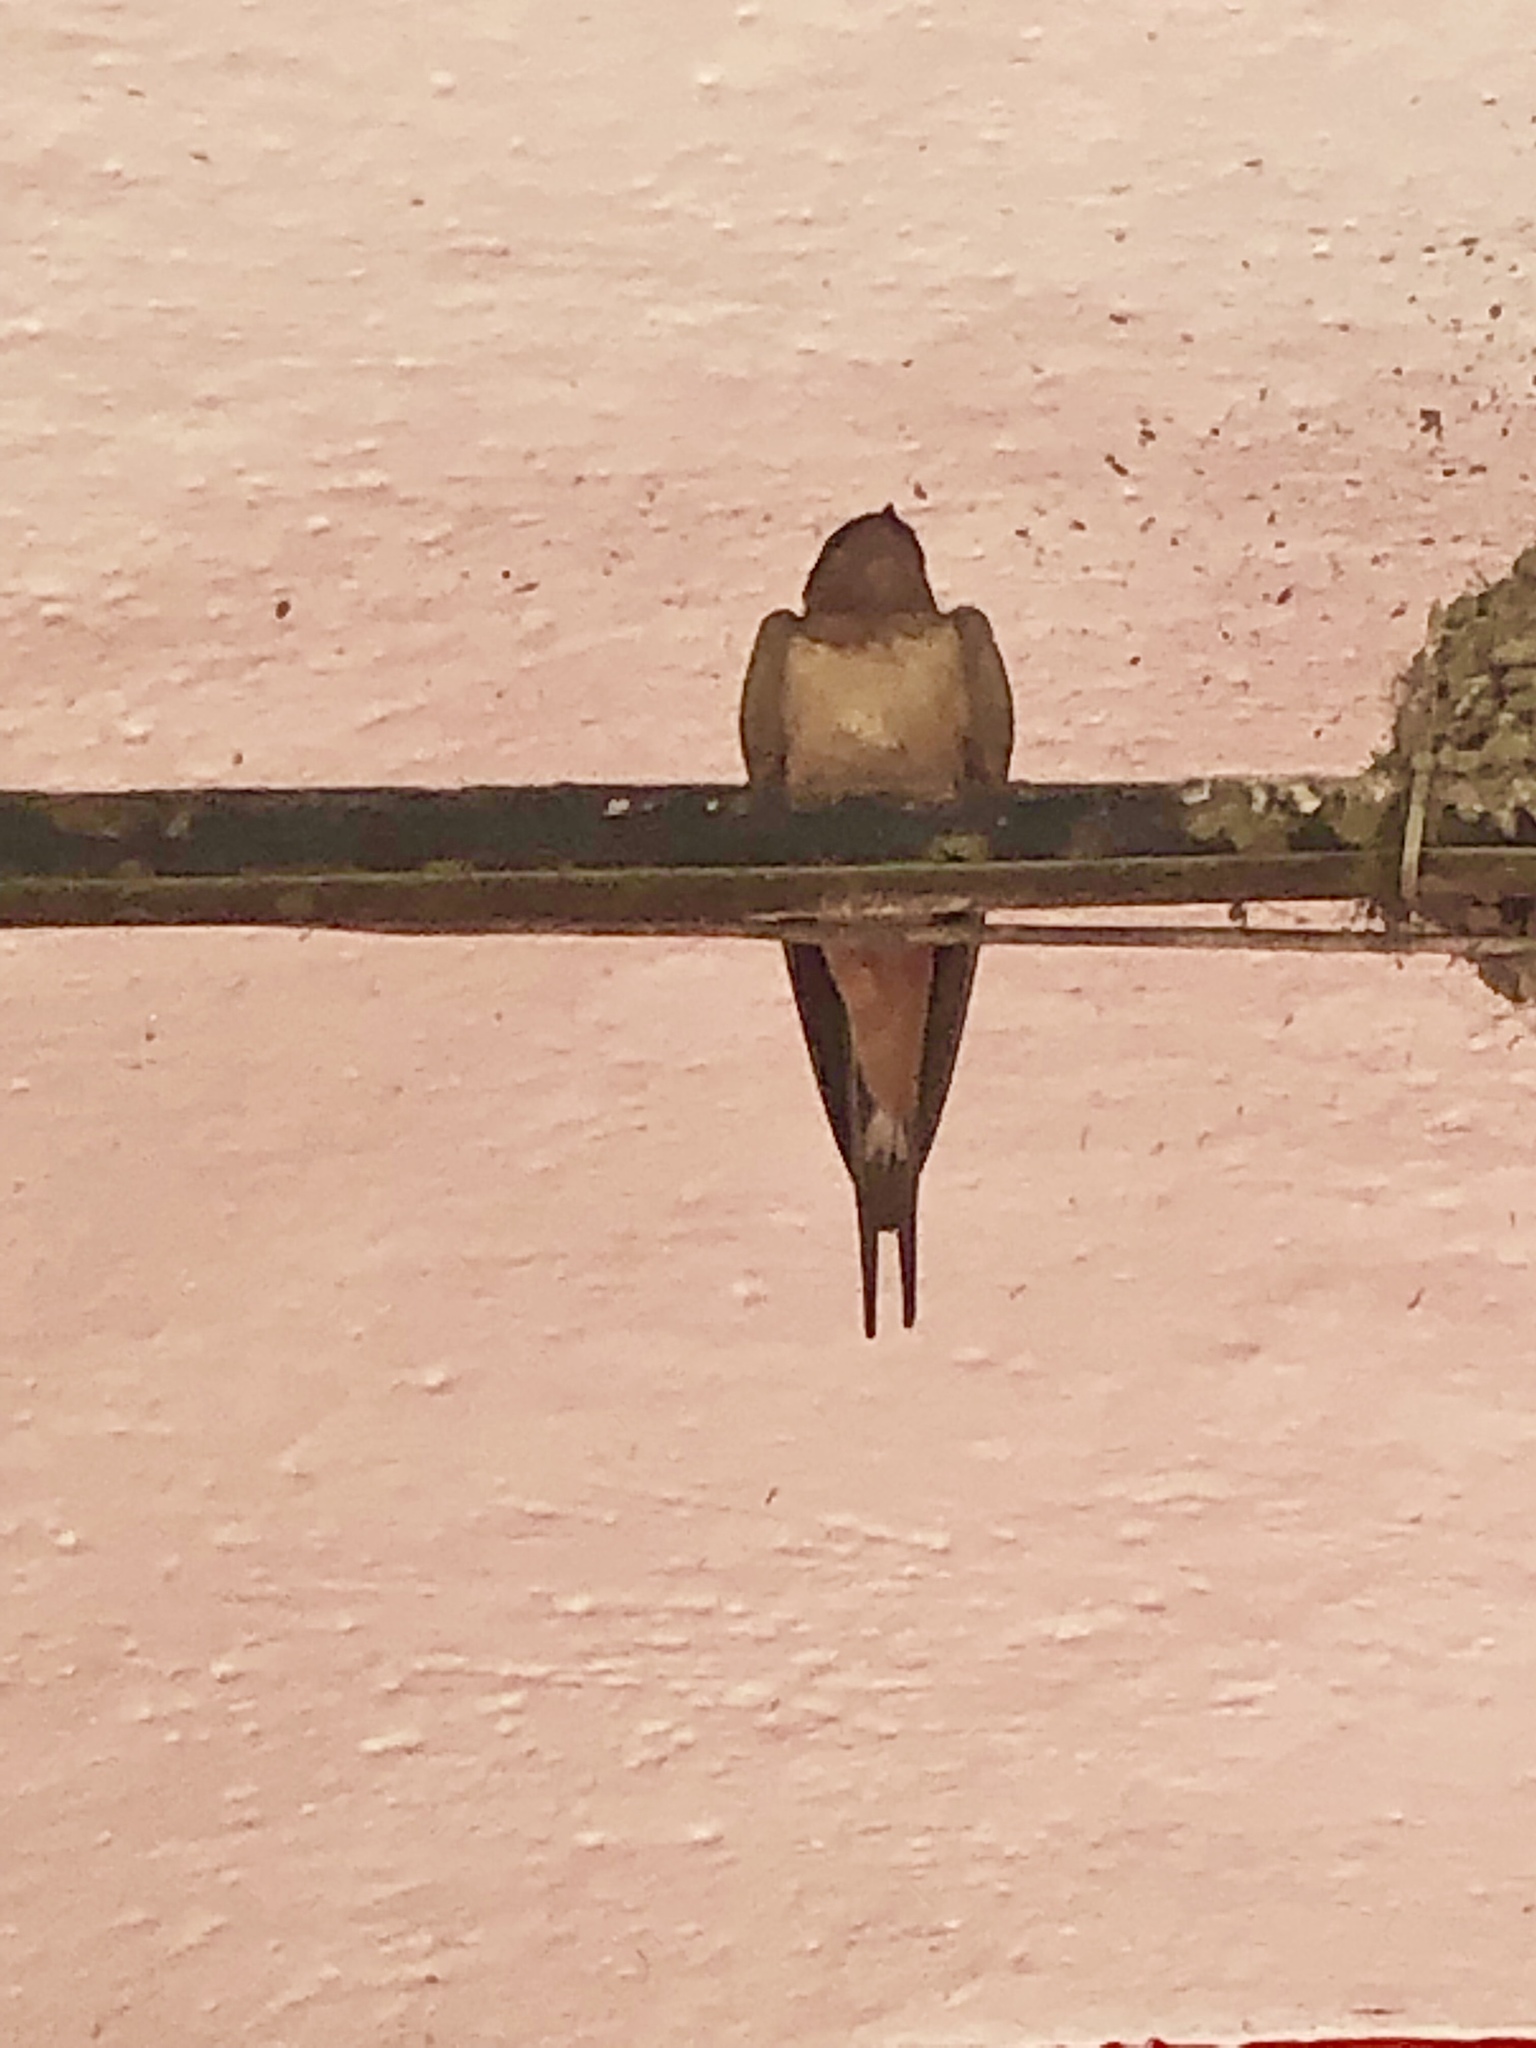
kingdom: Animalia
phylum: Chordata
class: Aves
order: Passeriformes
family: Hirundinidae
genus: Hirundo
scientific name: Hirundo rustica
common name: Barn swallow
